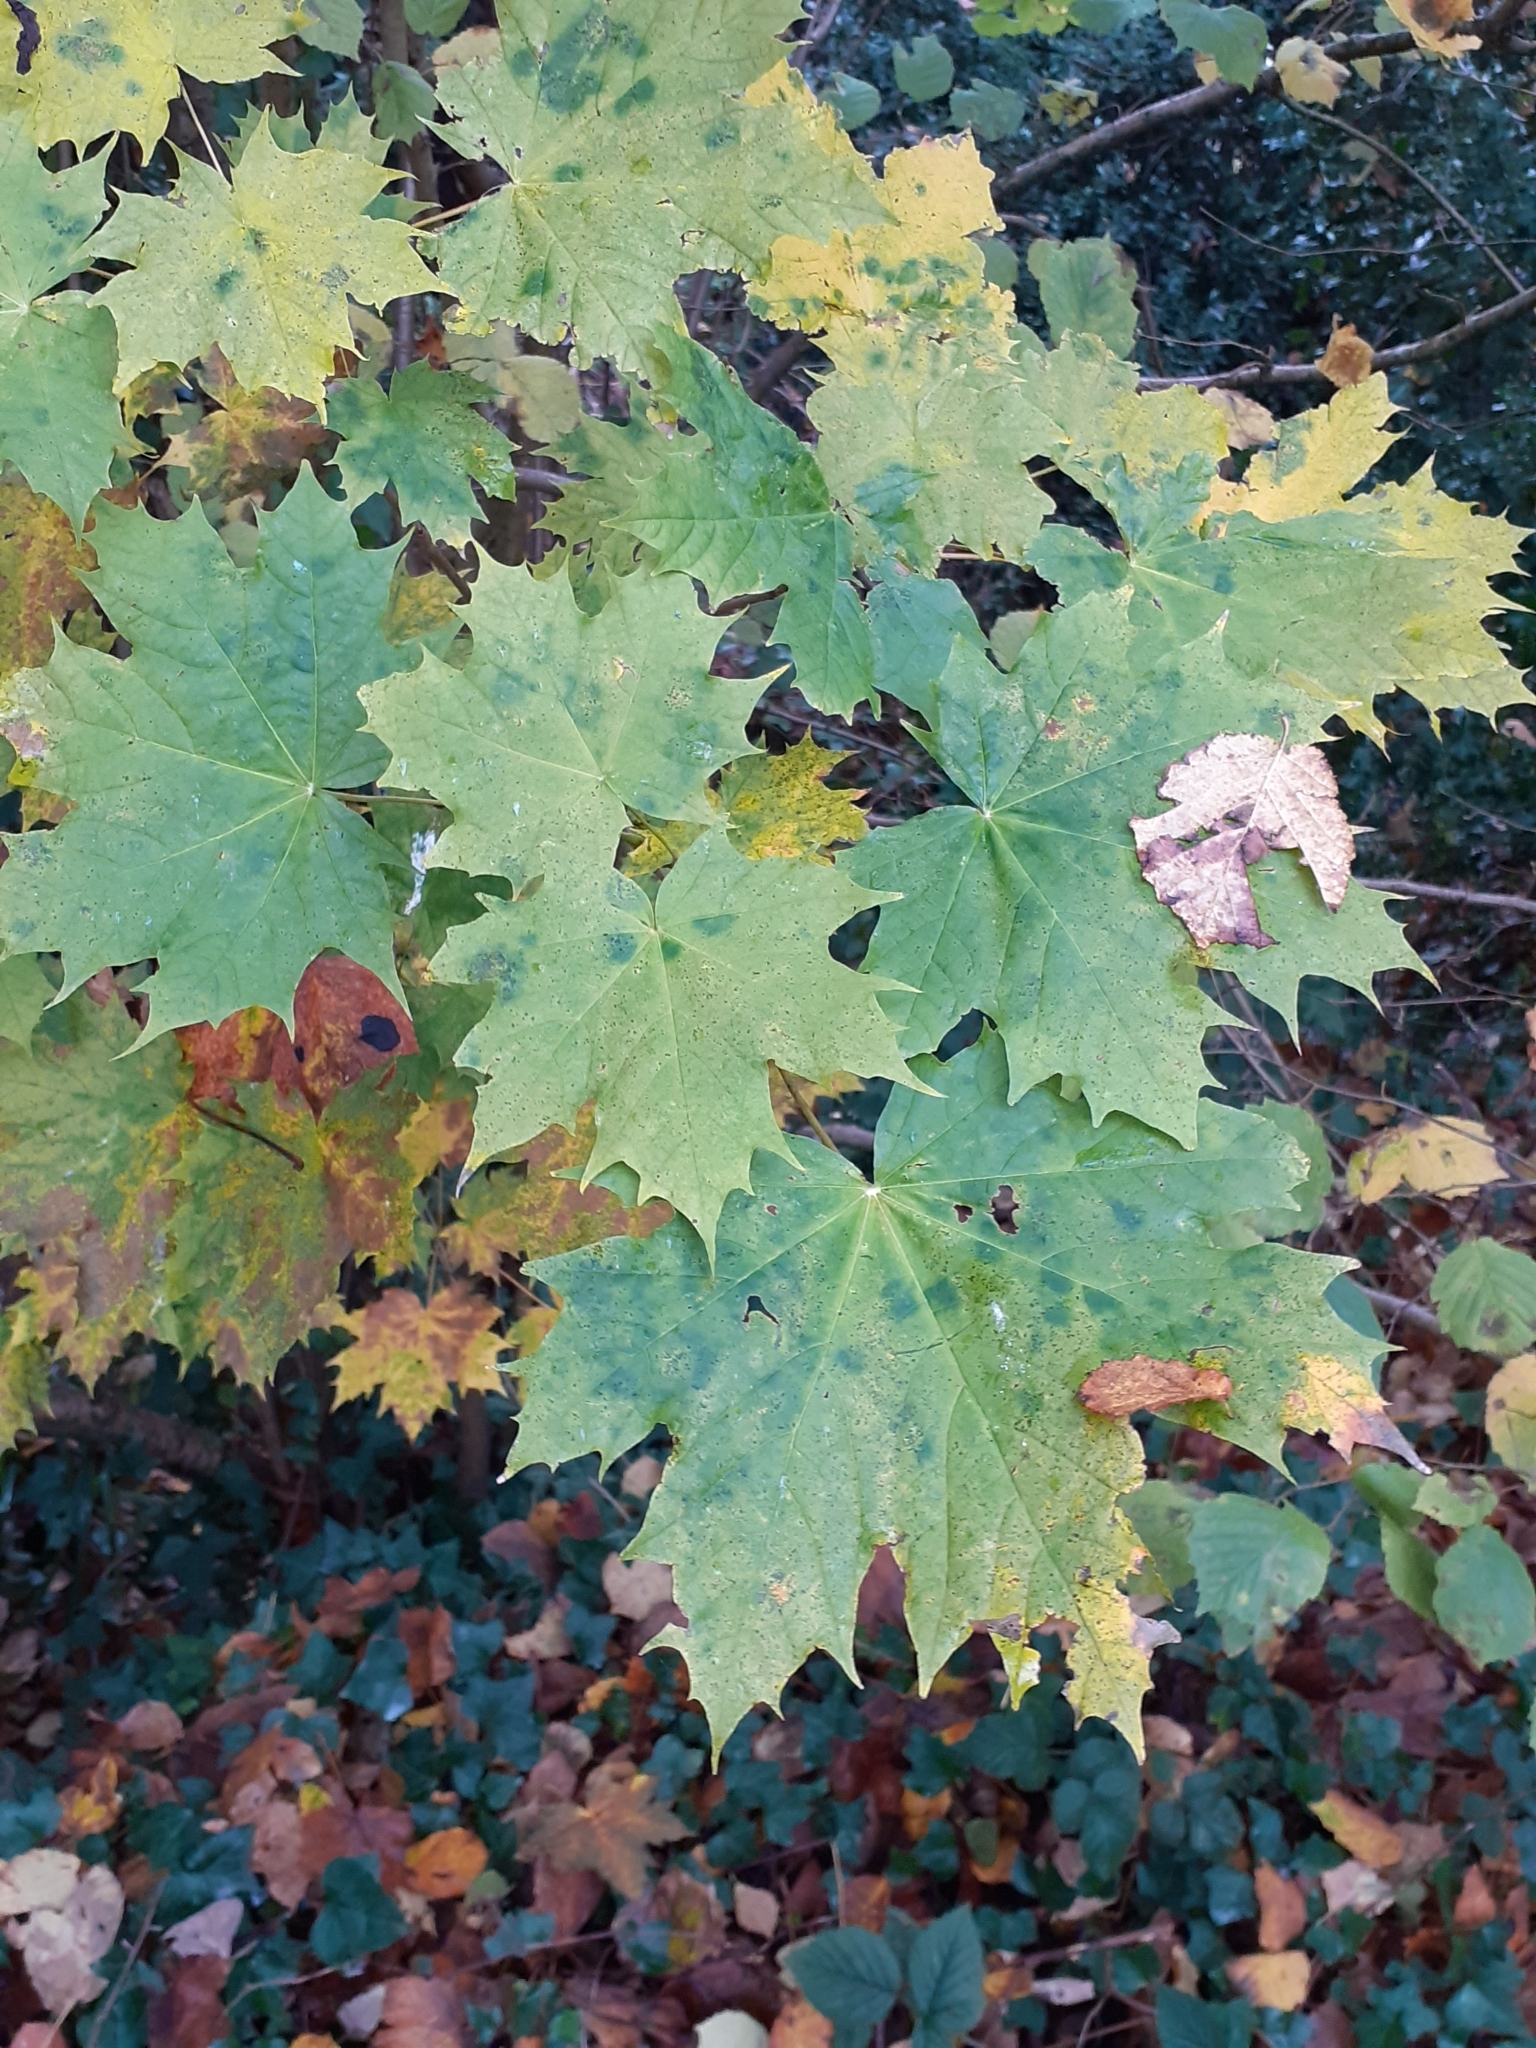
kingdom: Plantae
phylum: Tracheophyta
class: Magnoliopsida
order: Sapindales
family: Sapindaceae
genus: Acer
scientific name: Acer platanoides
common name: Norway maple
